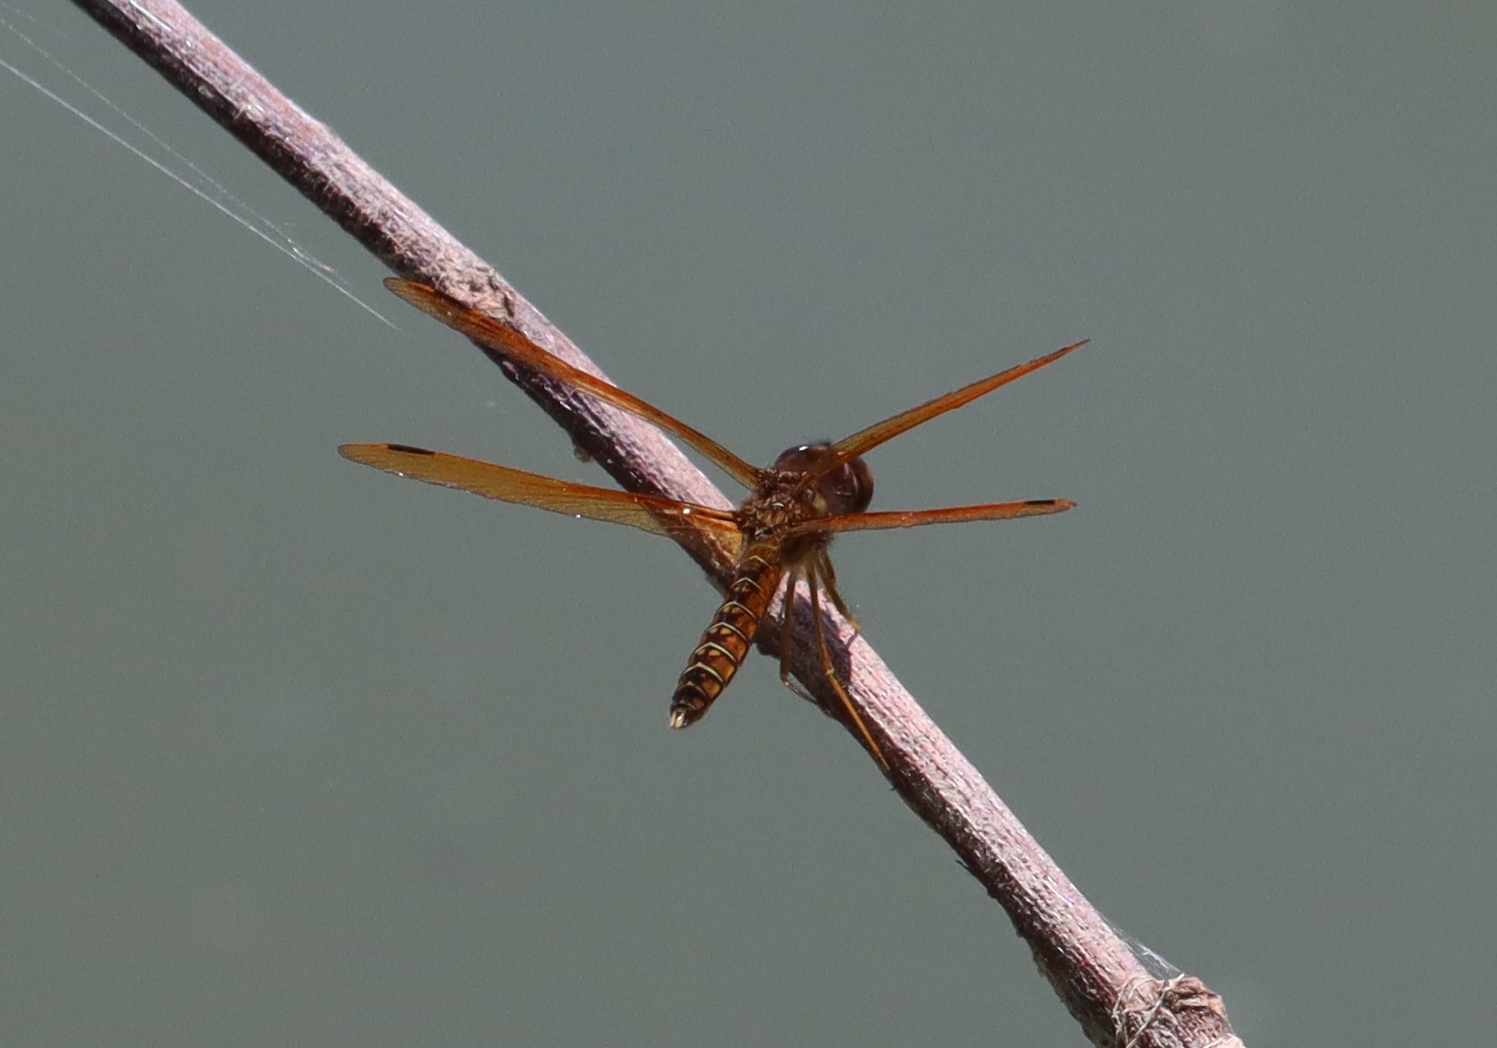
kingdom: Animalia
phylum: Arthropoda
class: Insecta
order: Odonata
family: Libellulidae
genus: Perithemis
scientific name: Perithemis tenera
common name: Eastern amberwing
